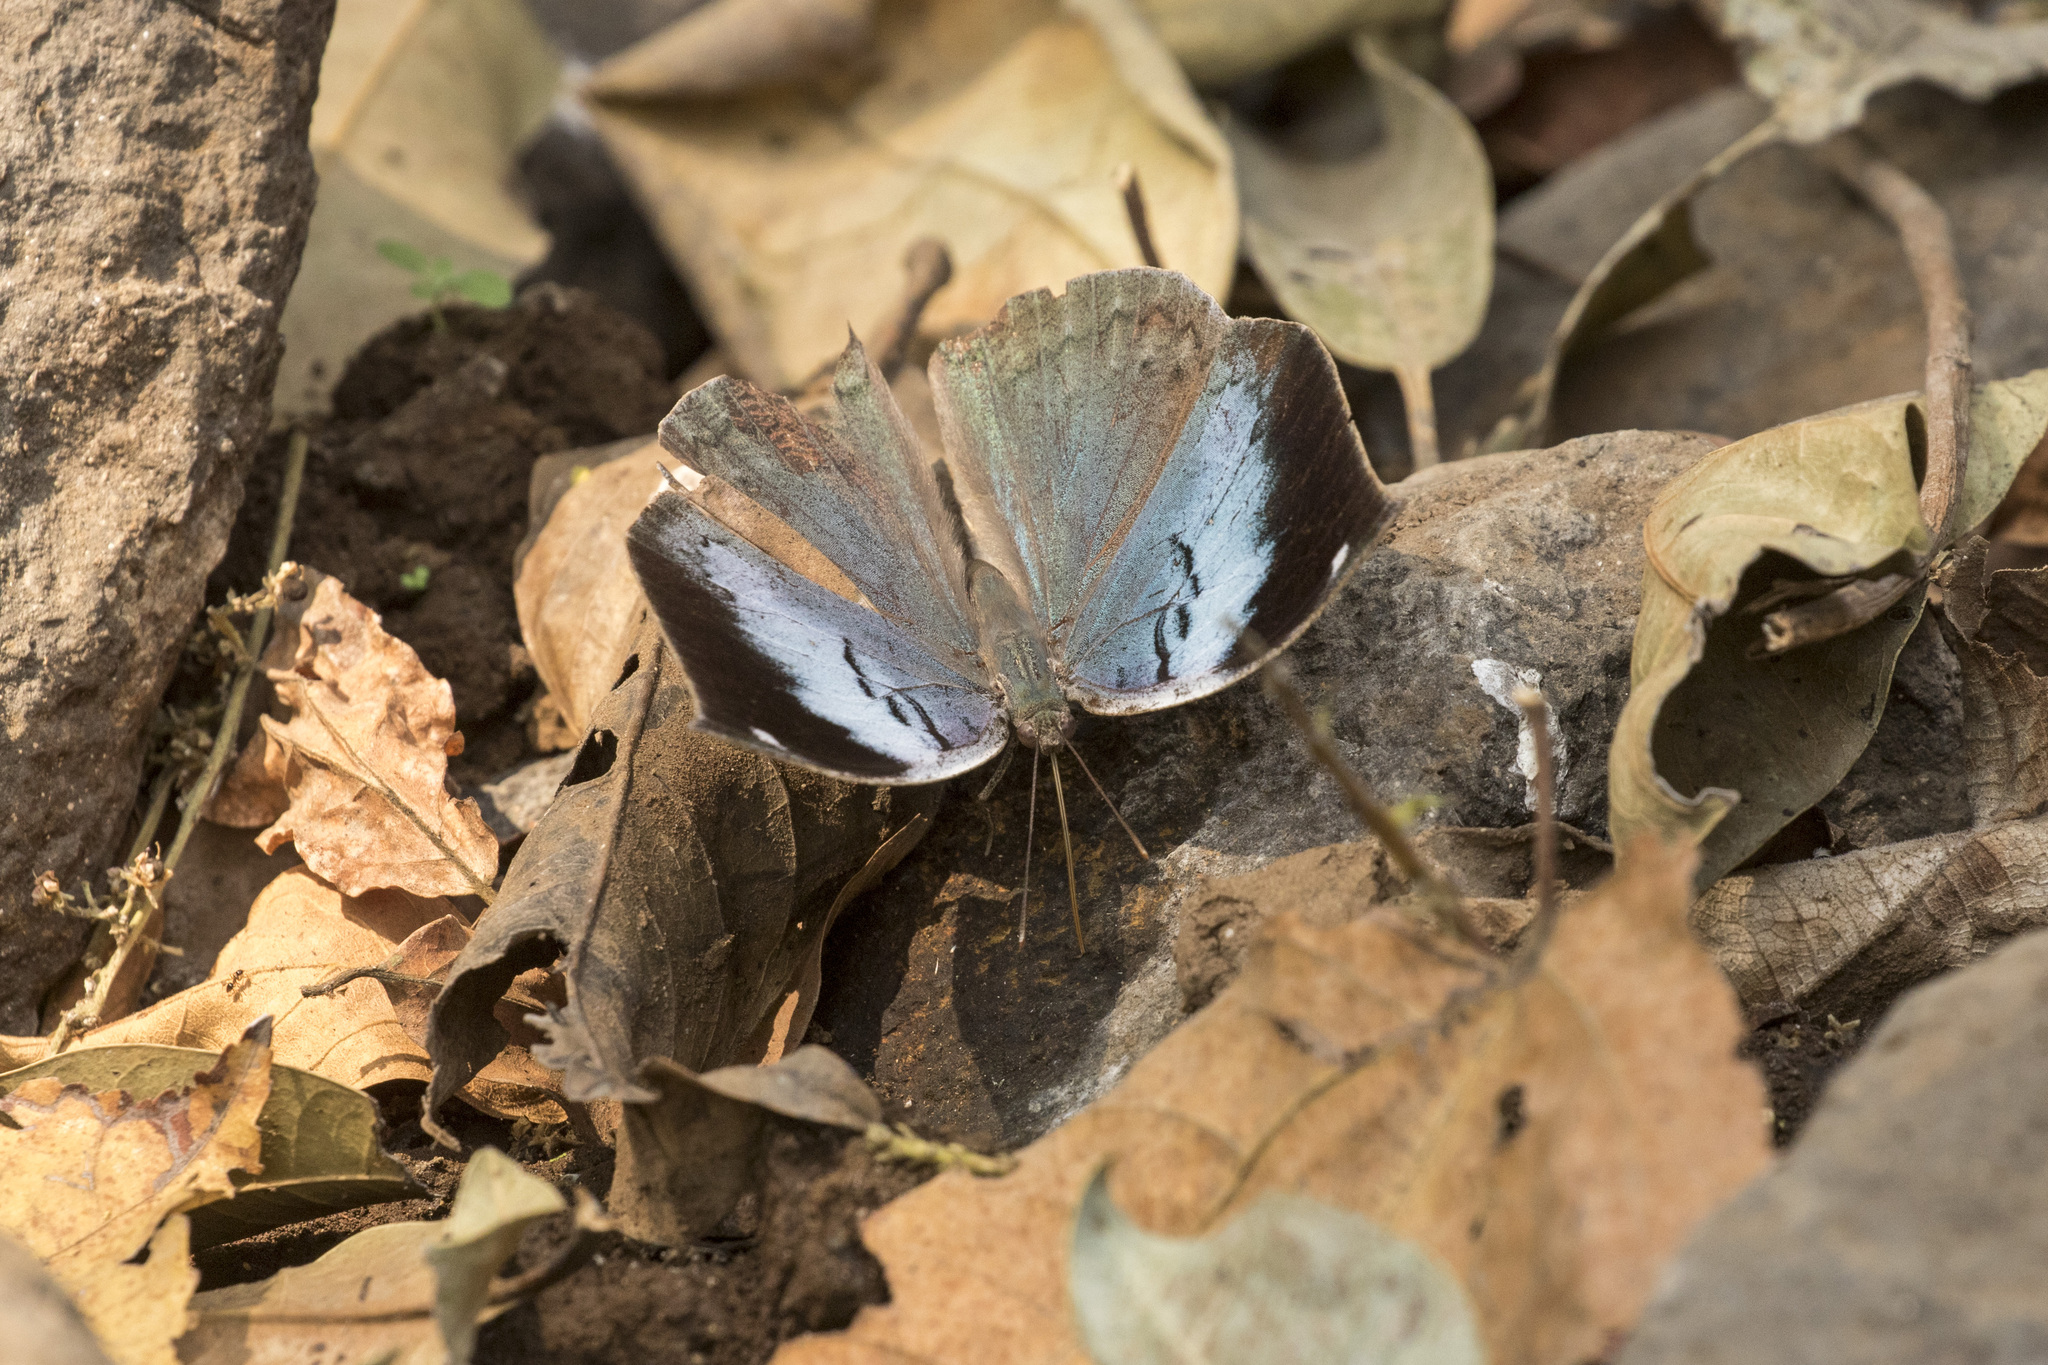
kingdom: Animalia
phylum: Arthropoda
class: Insecta
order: Lepidoptera
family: Nymphalidae
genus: Kallima
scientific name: Kallima horsfieldii
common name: Sahyadri blue oakleaf
